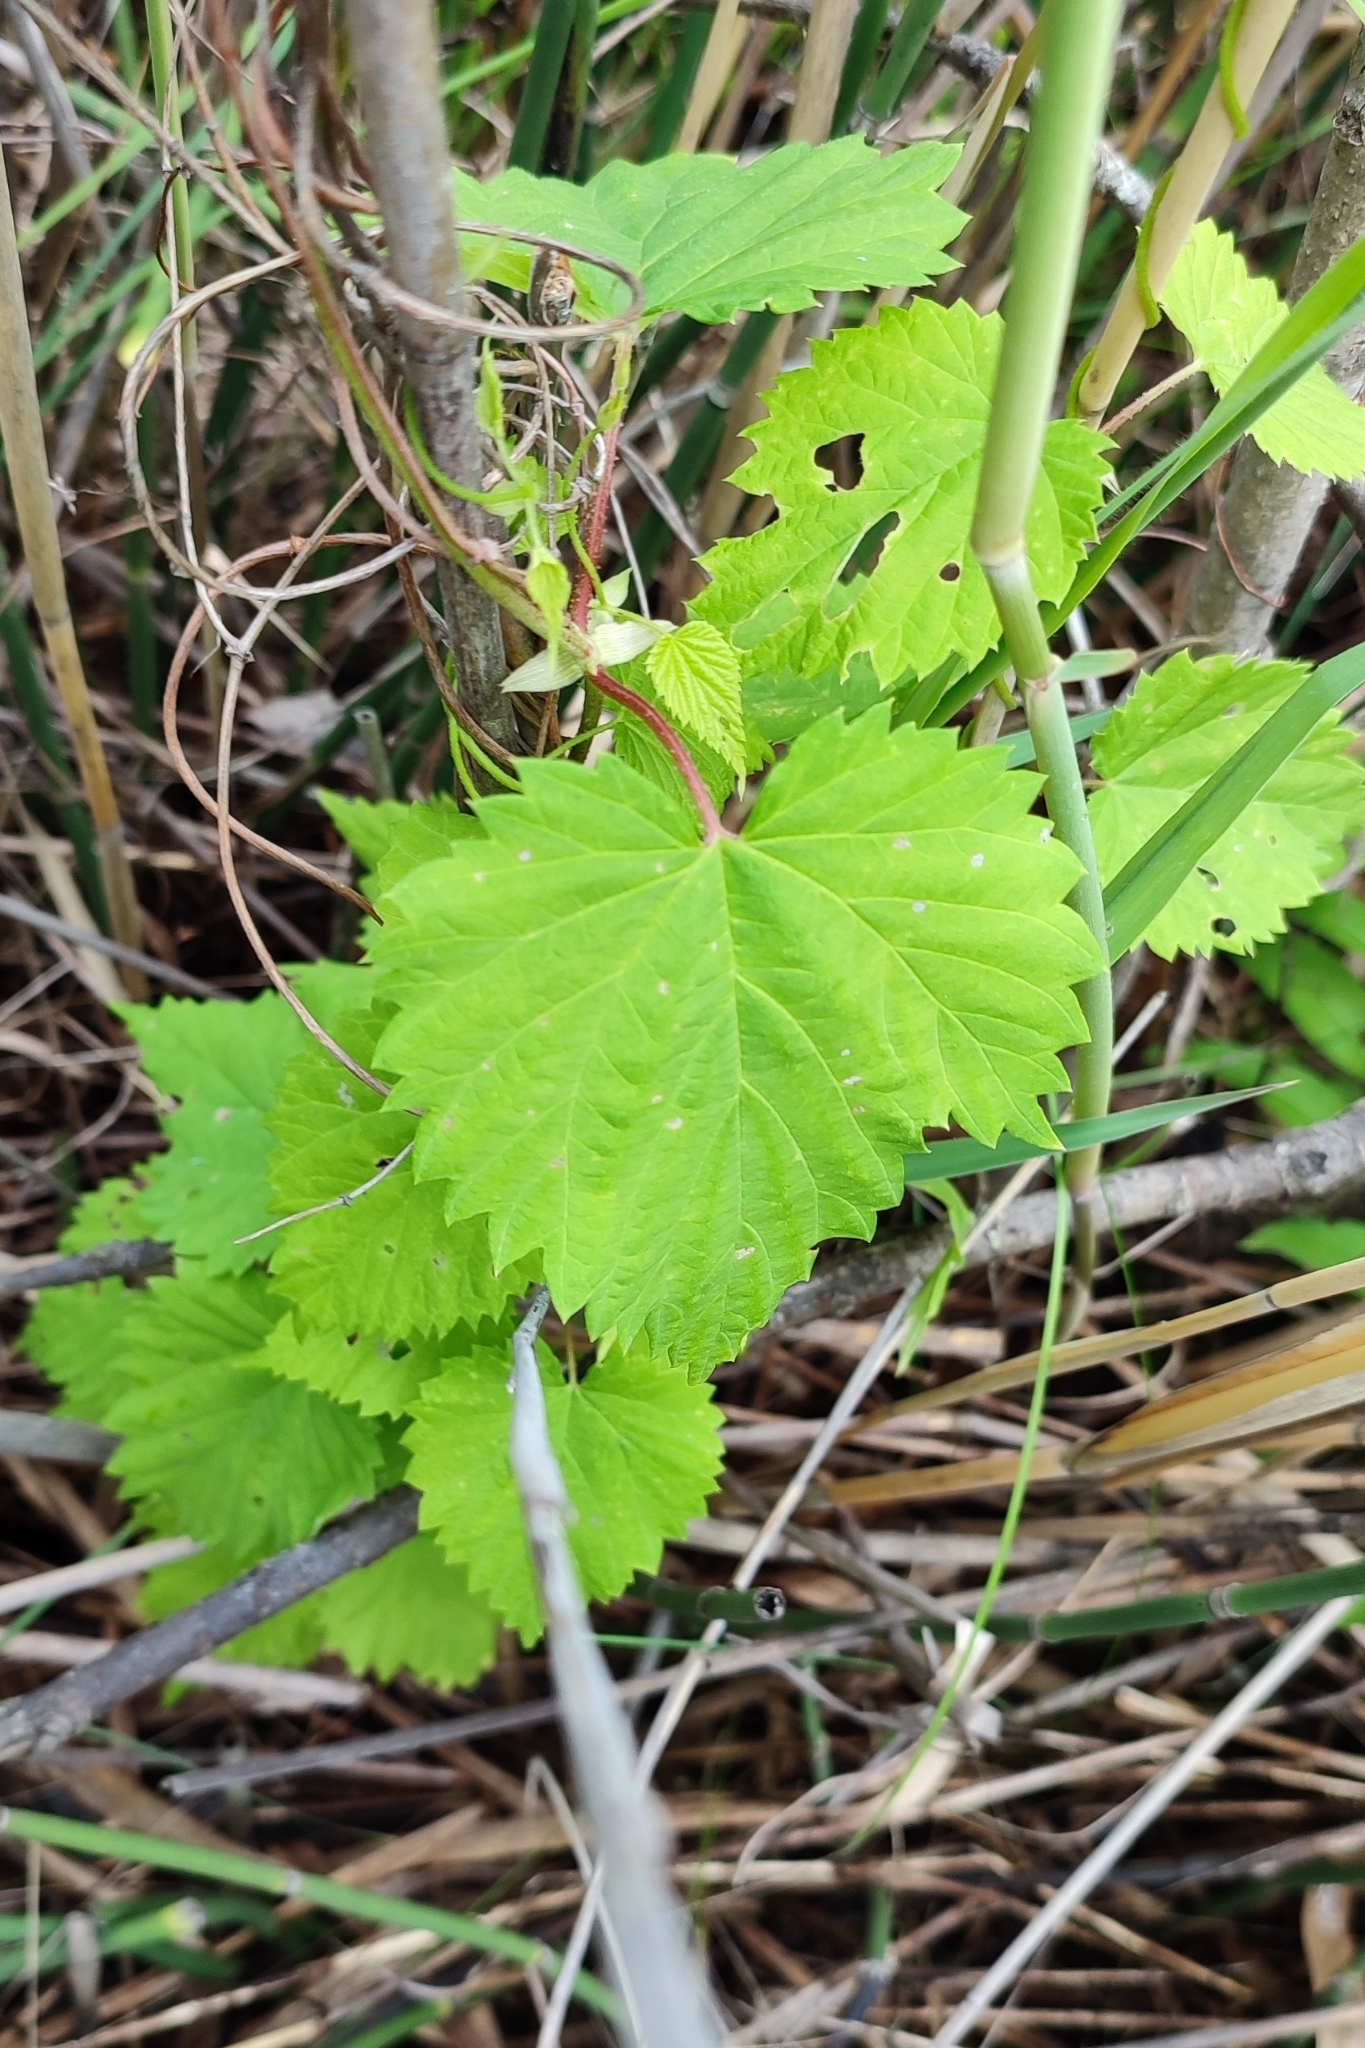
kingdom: Plantae
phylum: Tracheophyta
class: Magnoliopsida
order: Rosales
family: Cannabaceae
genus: Humulus
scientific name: Humulus lupulus
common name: Hop
